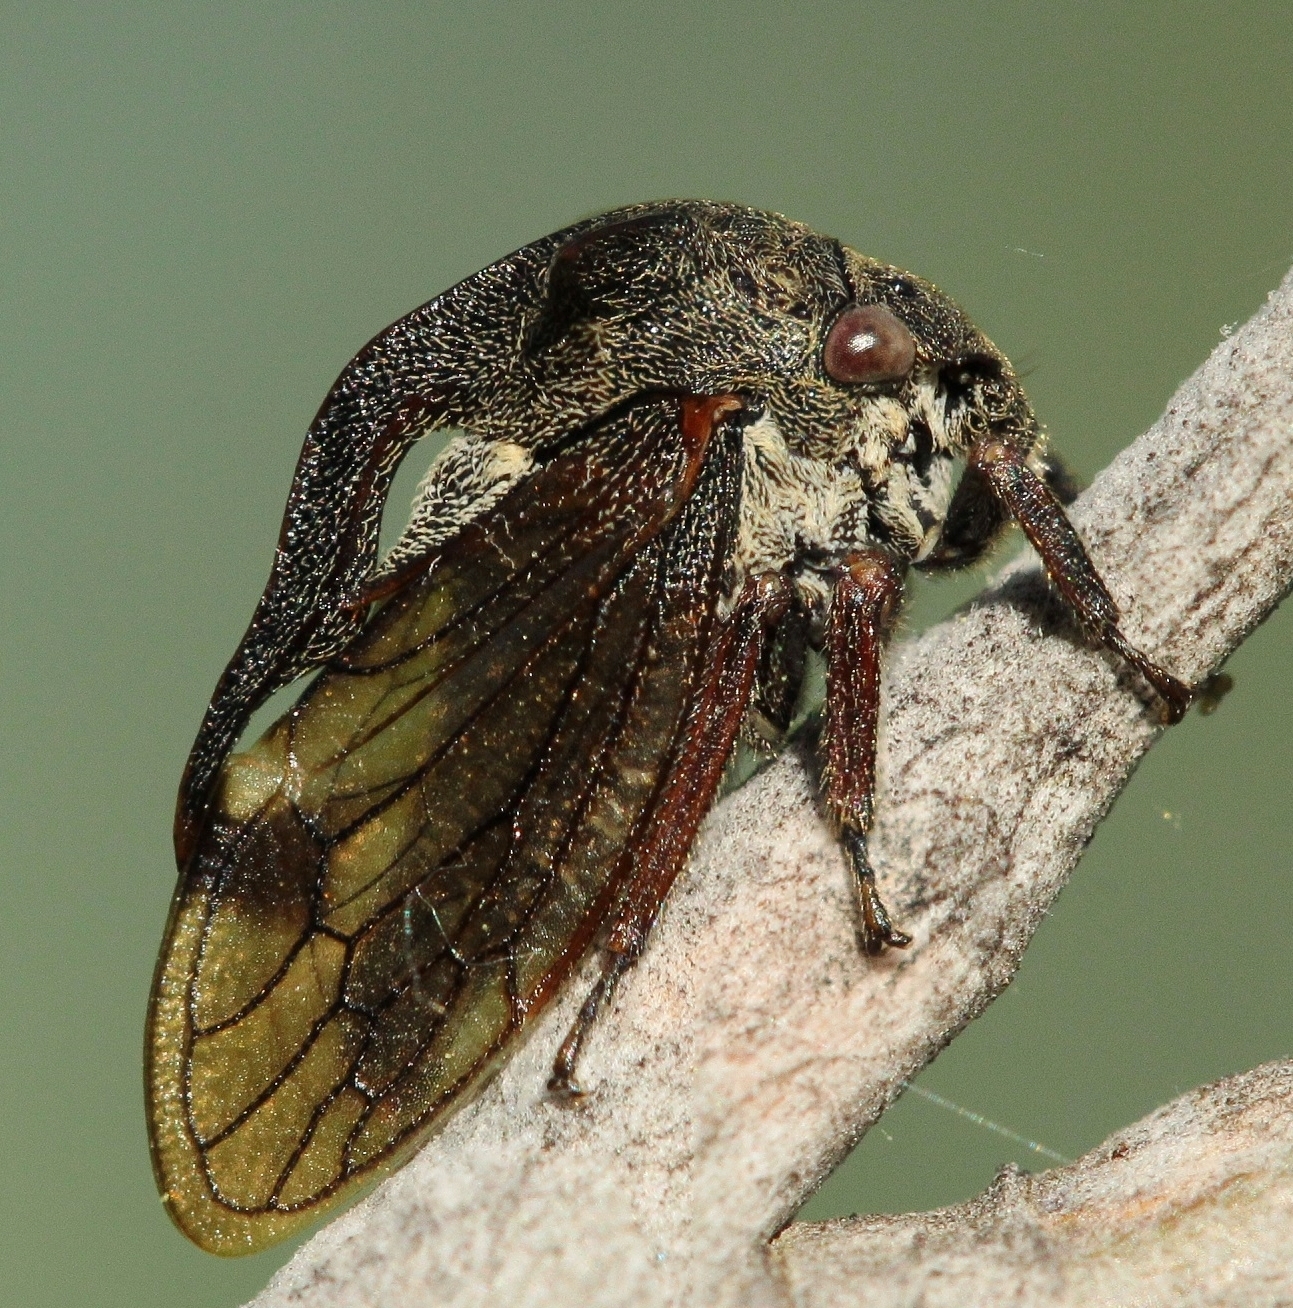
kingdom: Animalia
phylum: Arthropoda
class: Insecta
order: Hemiptera
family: Membracidae
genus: Centrotus
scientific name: Centrotus cornuta
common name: Treehopper
